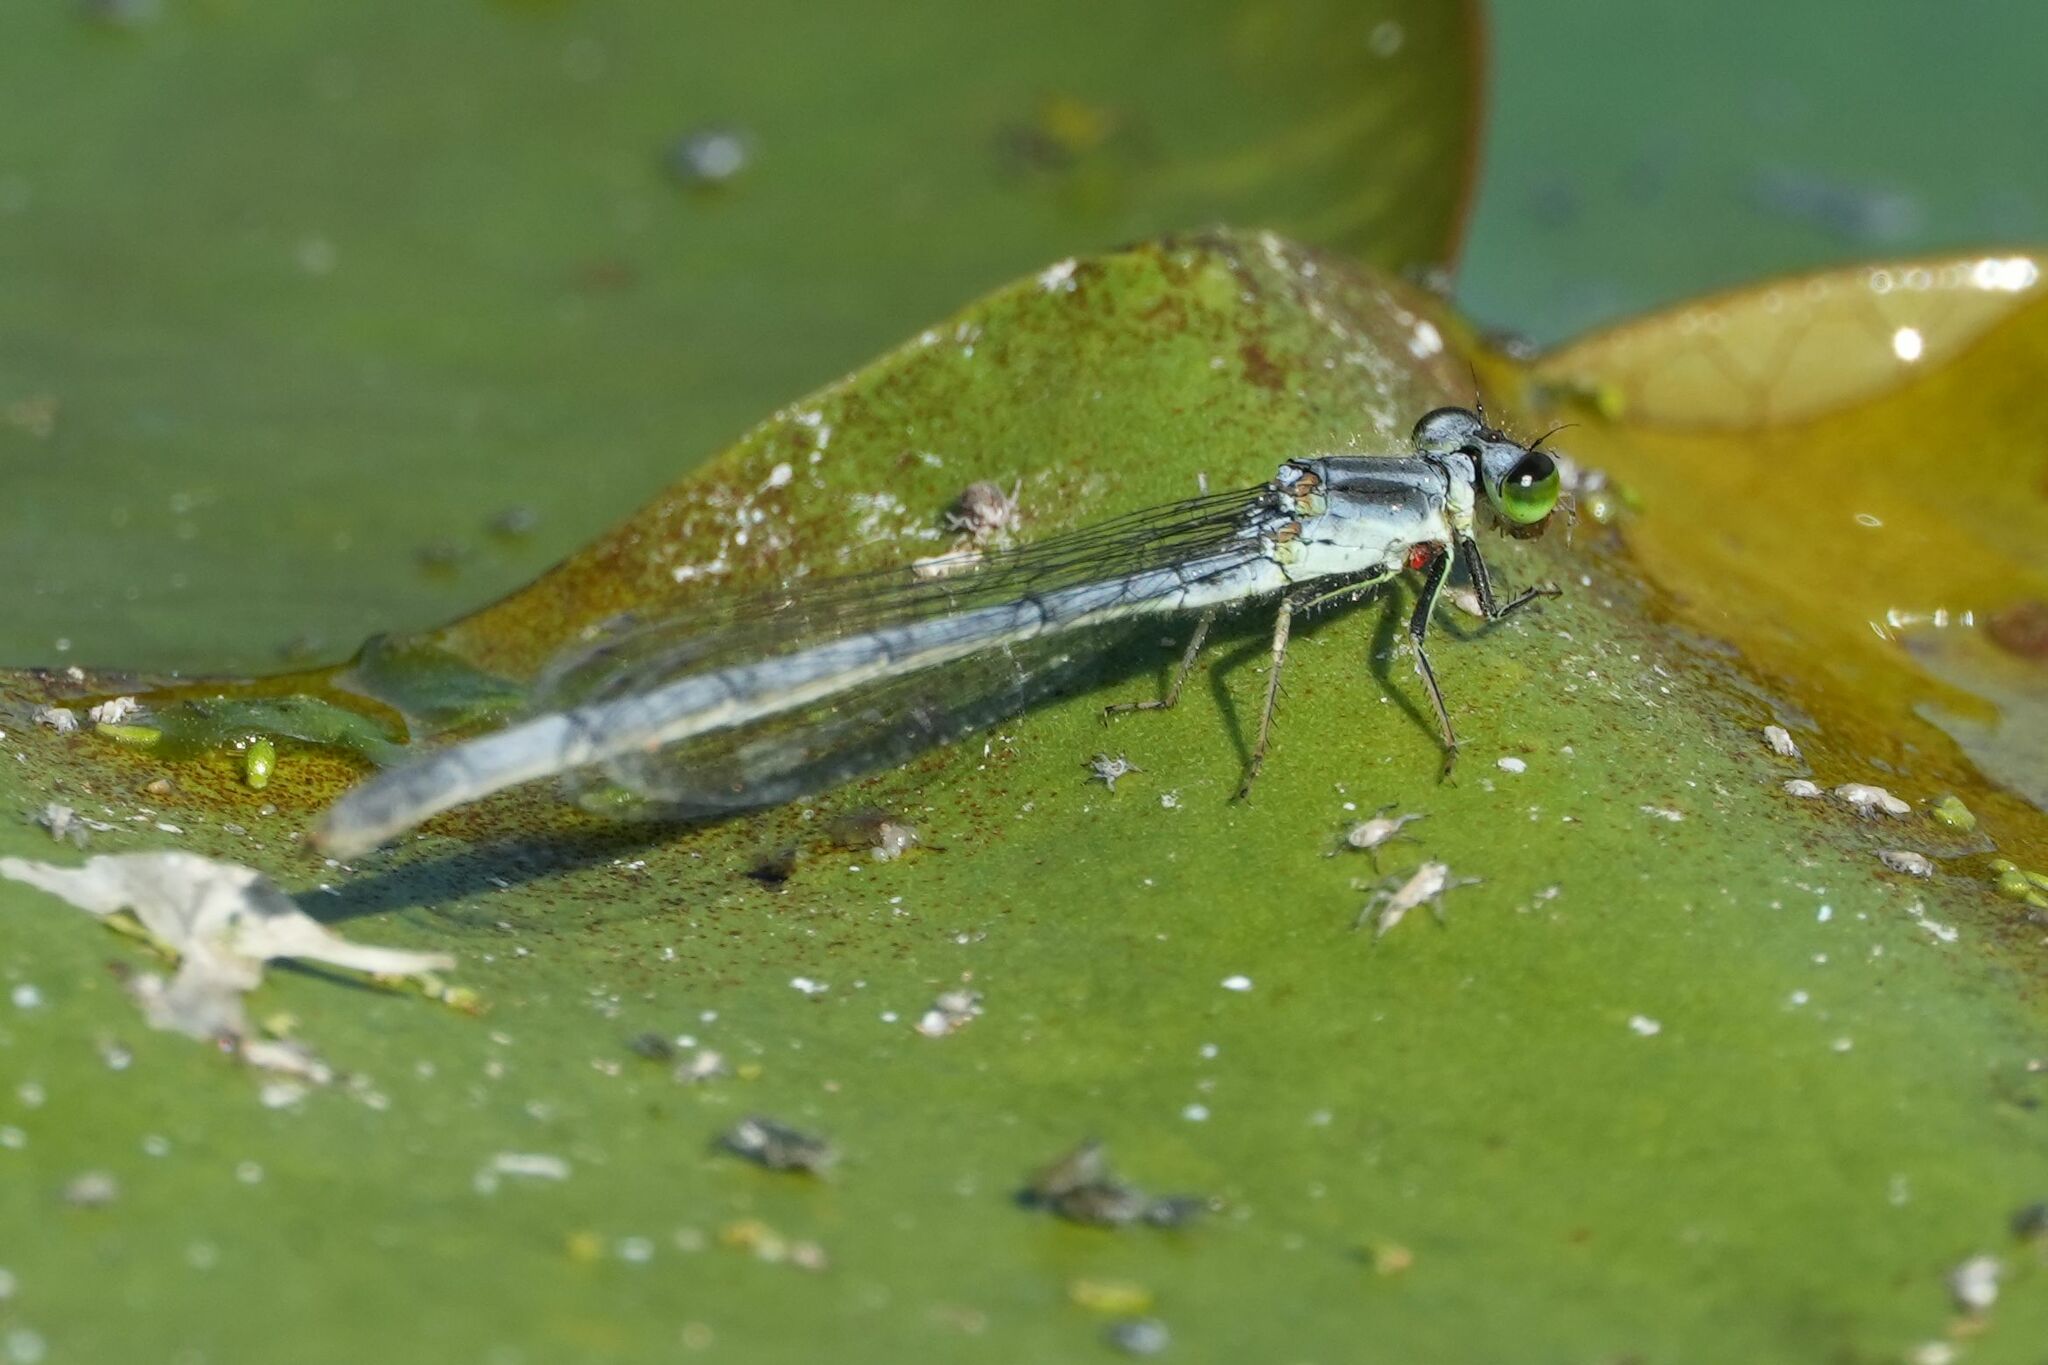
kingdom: Animalia
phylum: Arthropoda
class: Insecta
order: Odonata
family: Coenagrionidae
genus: Ischnura
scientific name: Ischnura verticalis
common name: Eastern forktail
